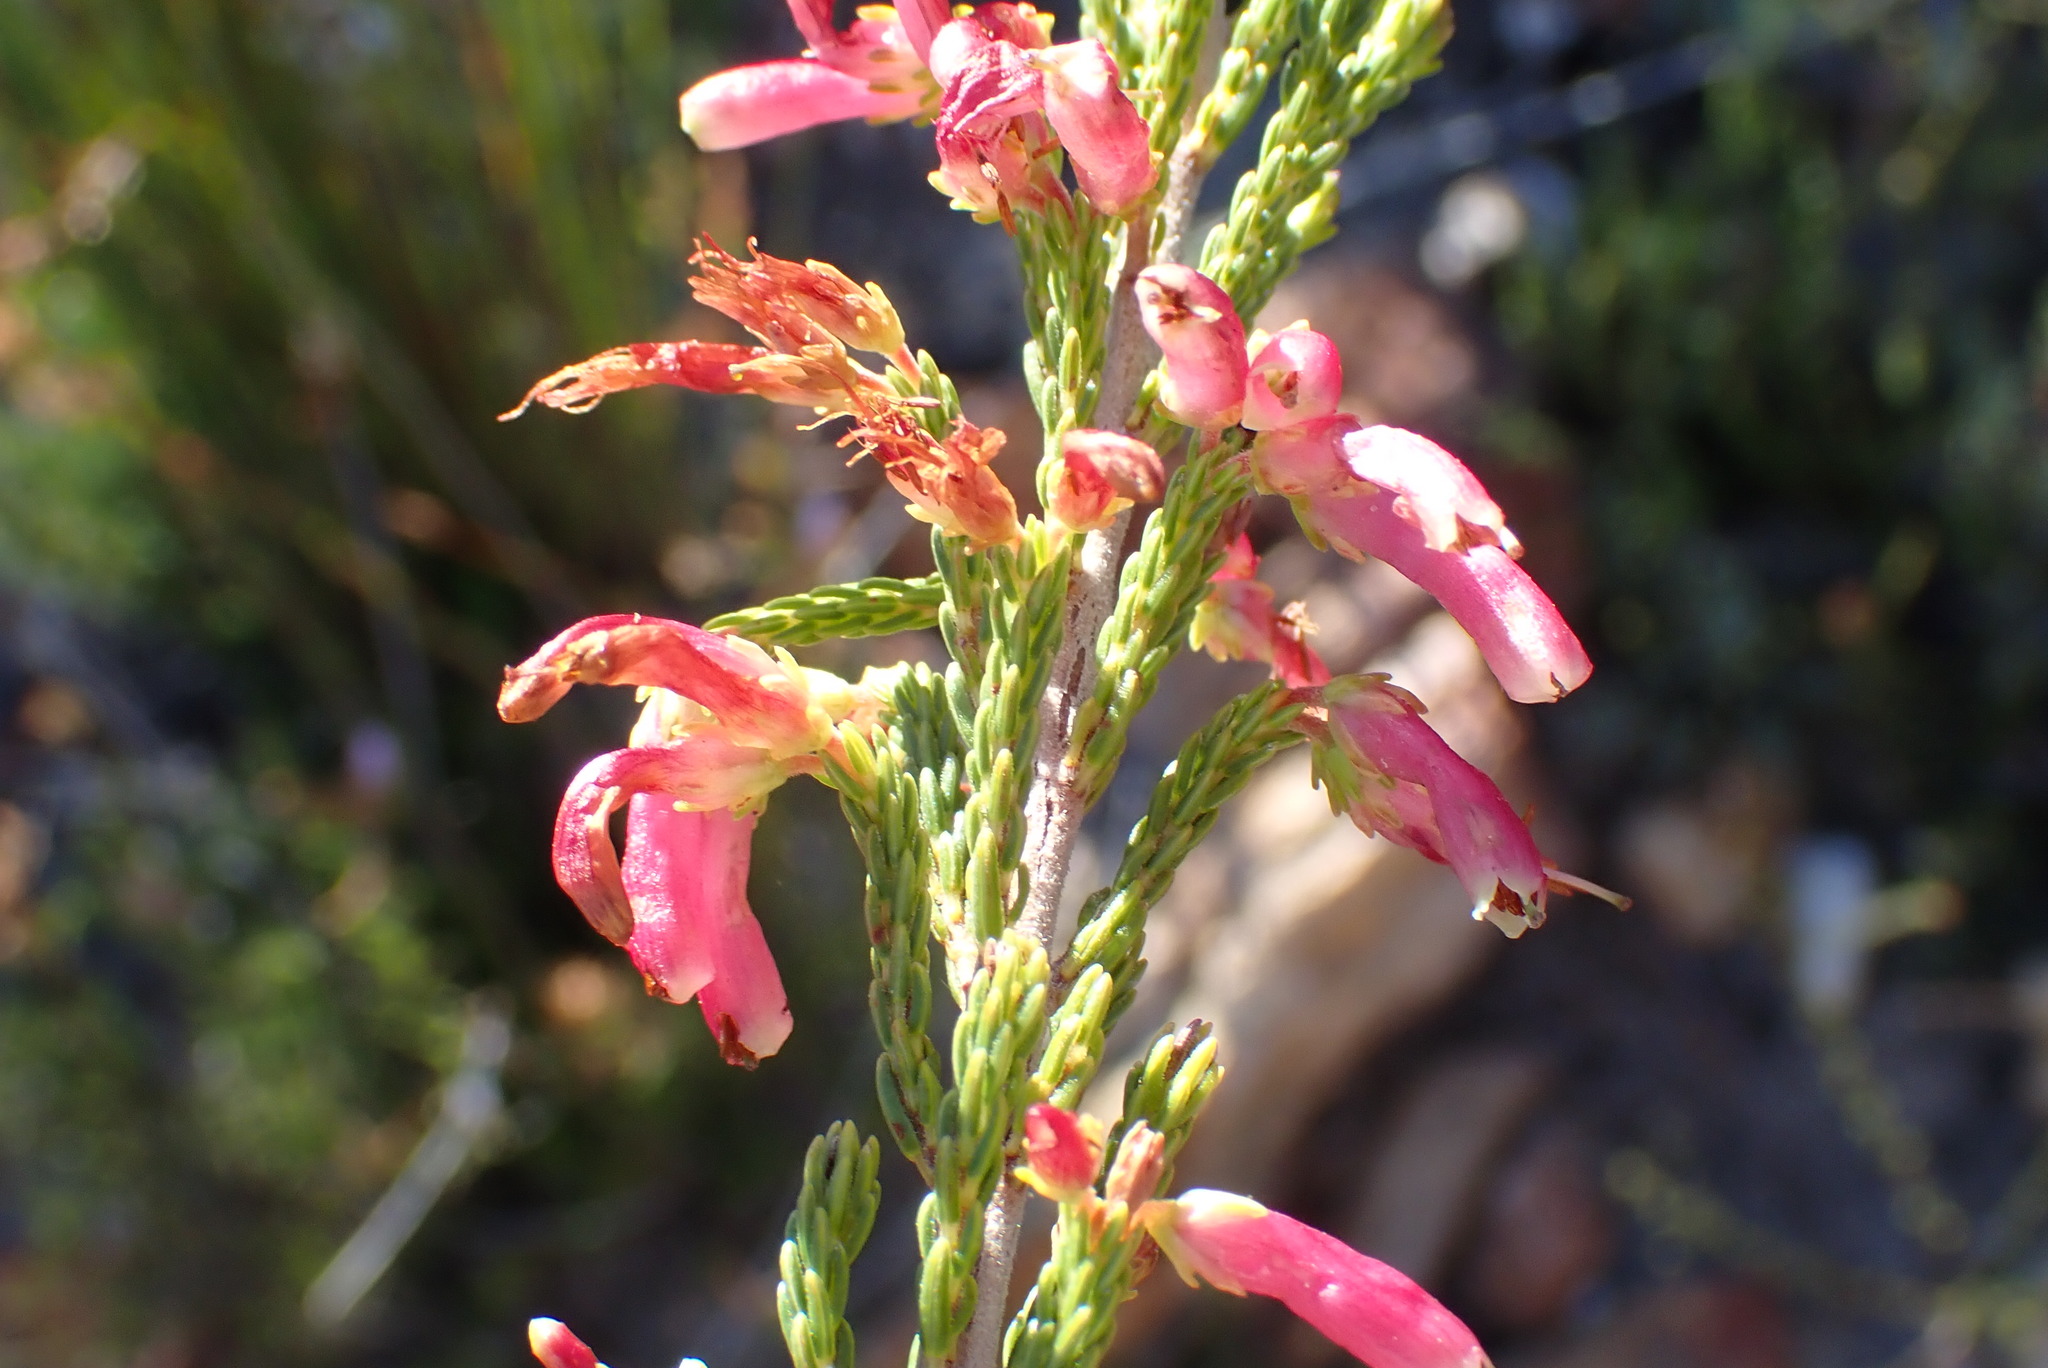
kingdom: Plantae
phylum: Tracheophyta
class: Magnoliopsida
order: Ericales
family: Ericaceae
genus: Erica
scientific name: Erica discolor
